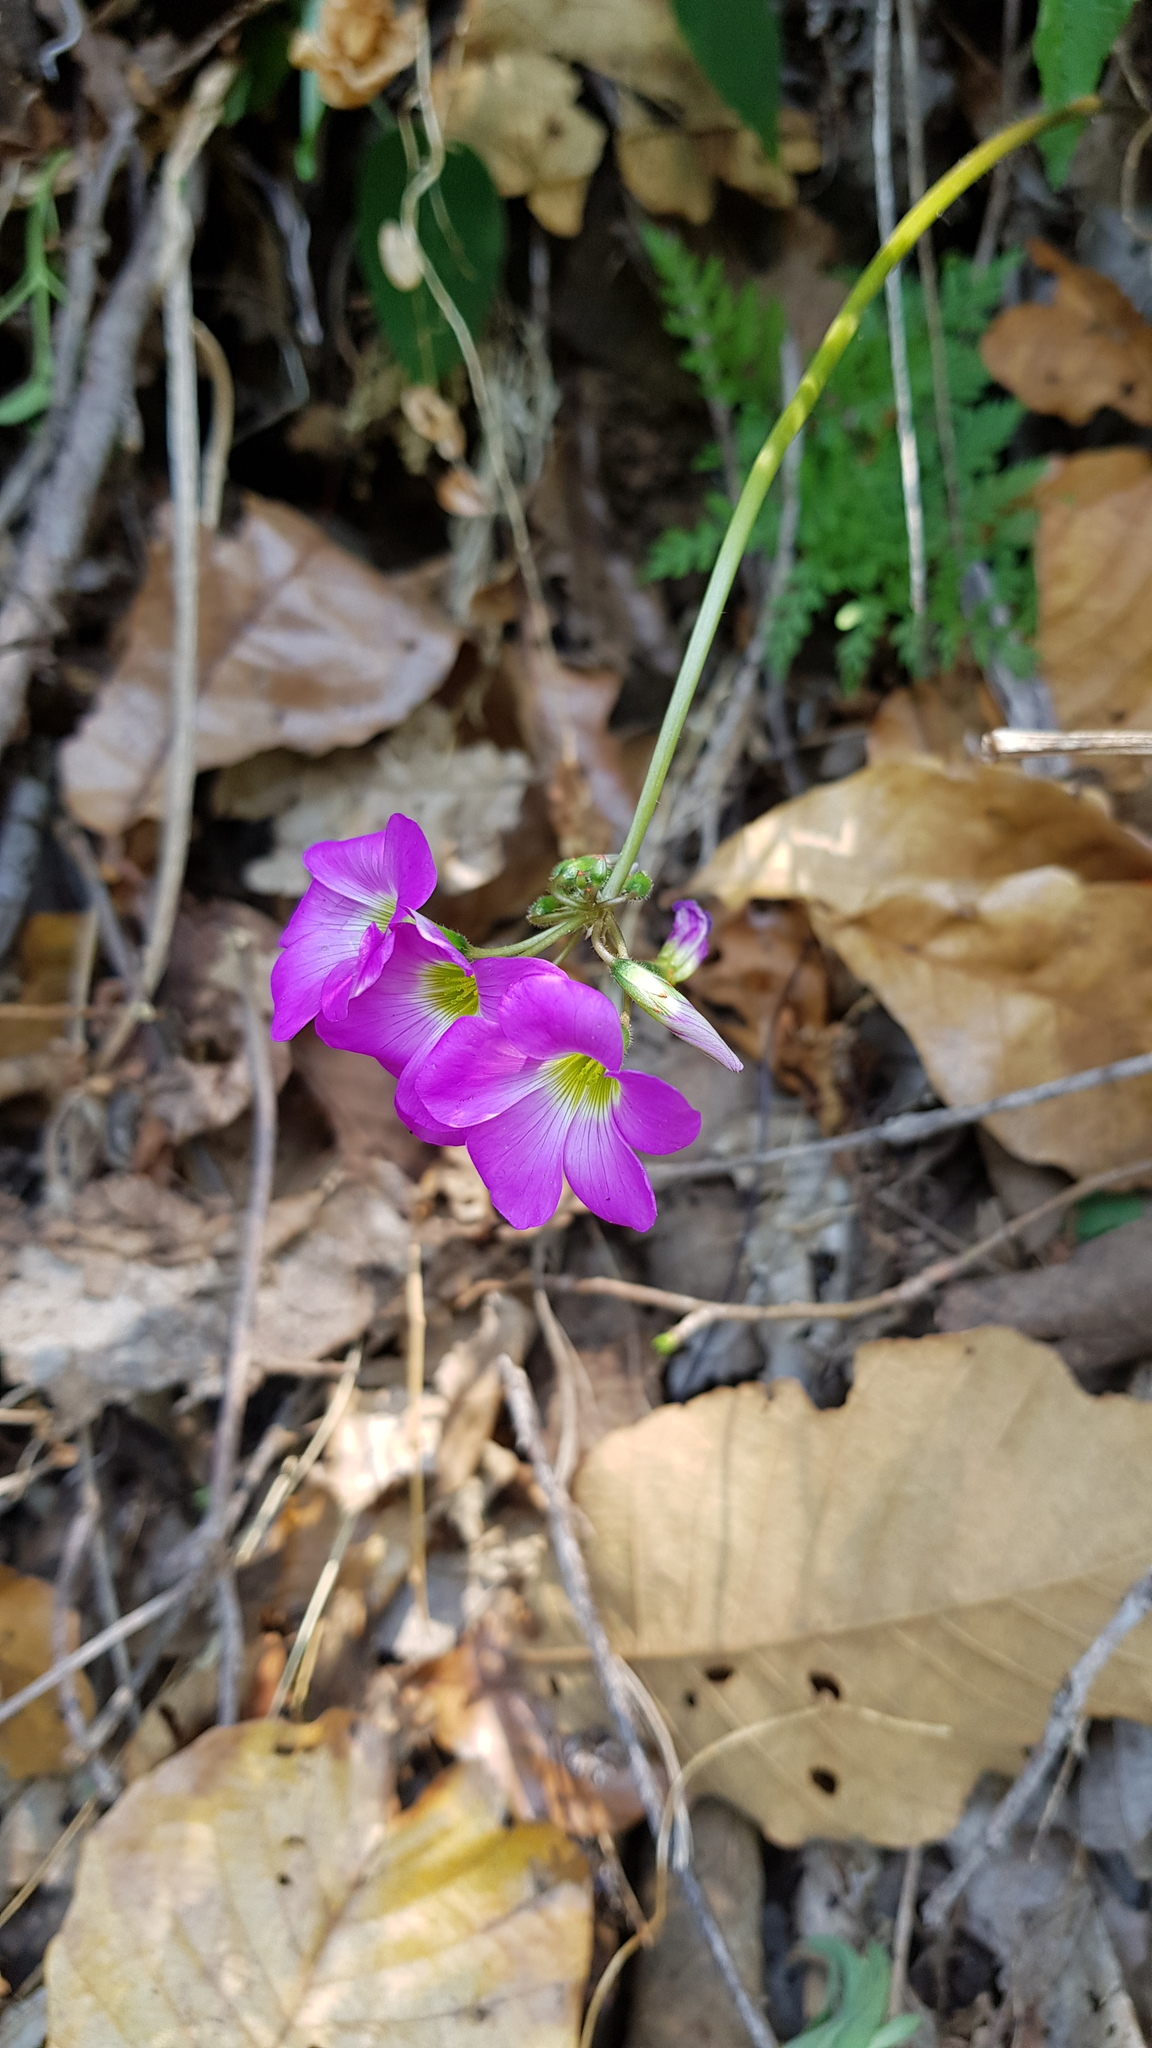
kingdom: Plantae
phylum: Tracheophyta
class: Magnoliopsida
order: Oxalidales
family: Oxalidaceae
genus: Oxalis
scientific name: Oxalis lasiandra
